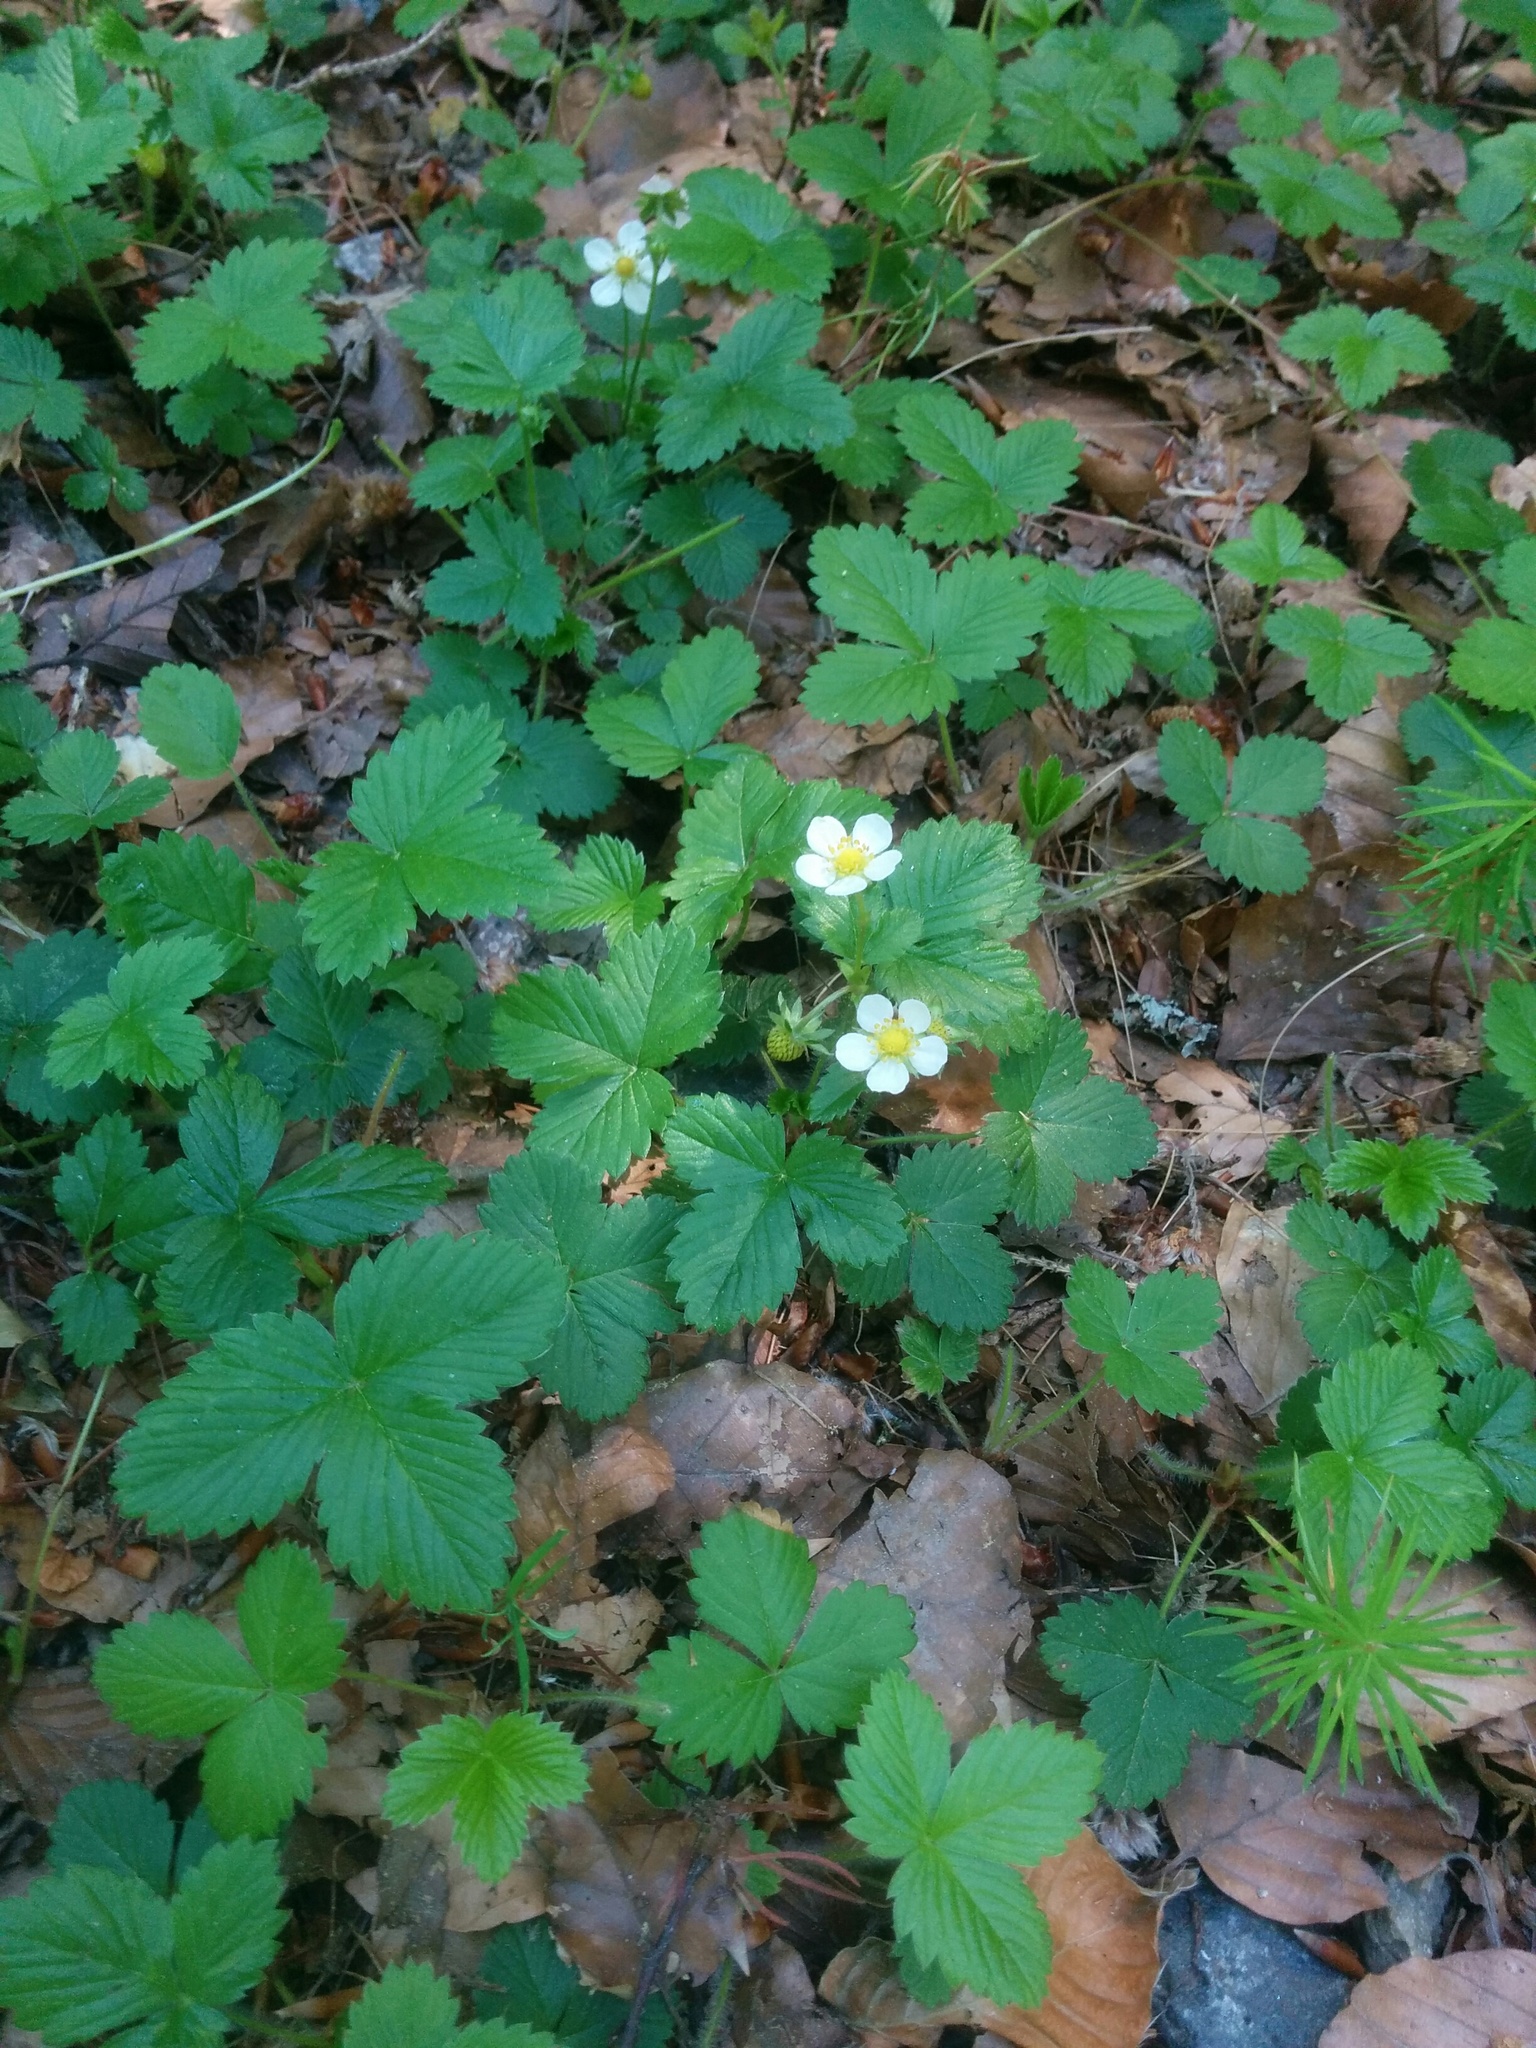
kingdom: Plantae
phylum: Tracheophyta
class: Magnoliopsida
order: Rosales
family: Rosaceae
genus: Fragaria
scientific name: Fragaria vesca
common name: Wild strawberry
